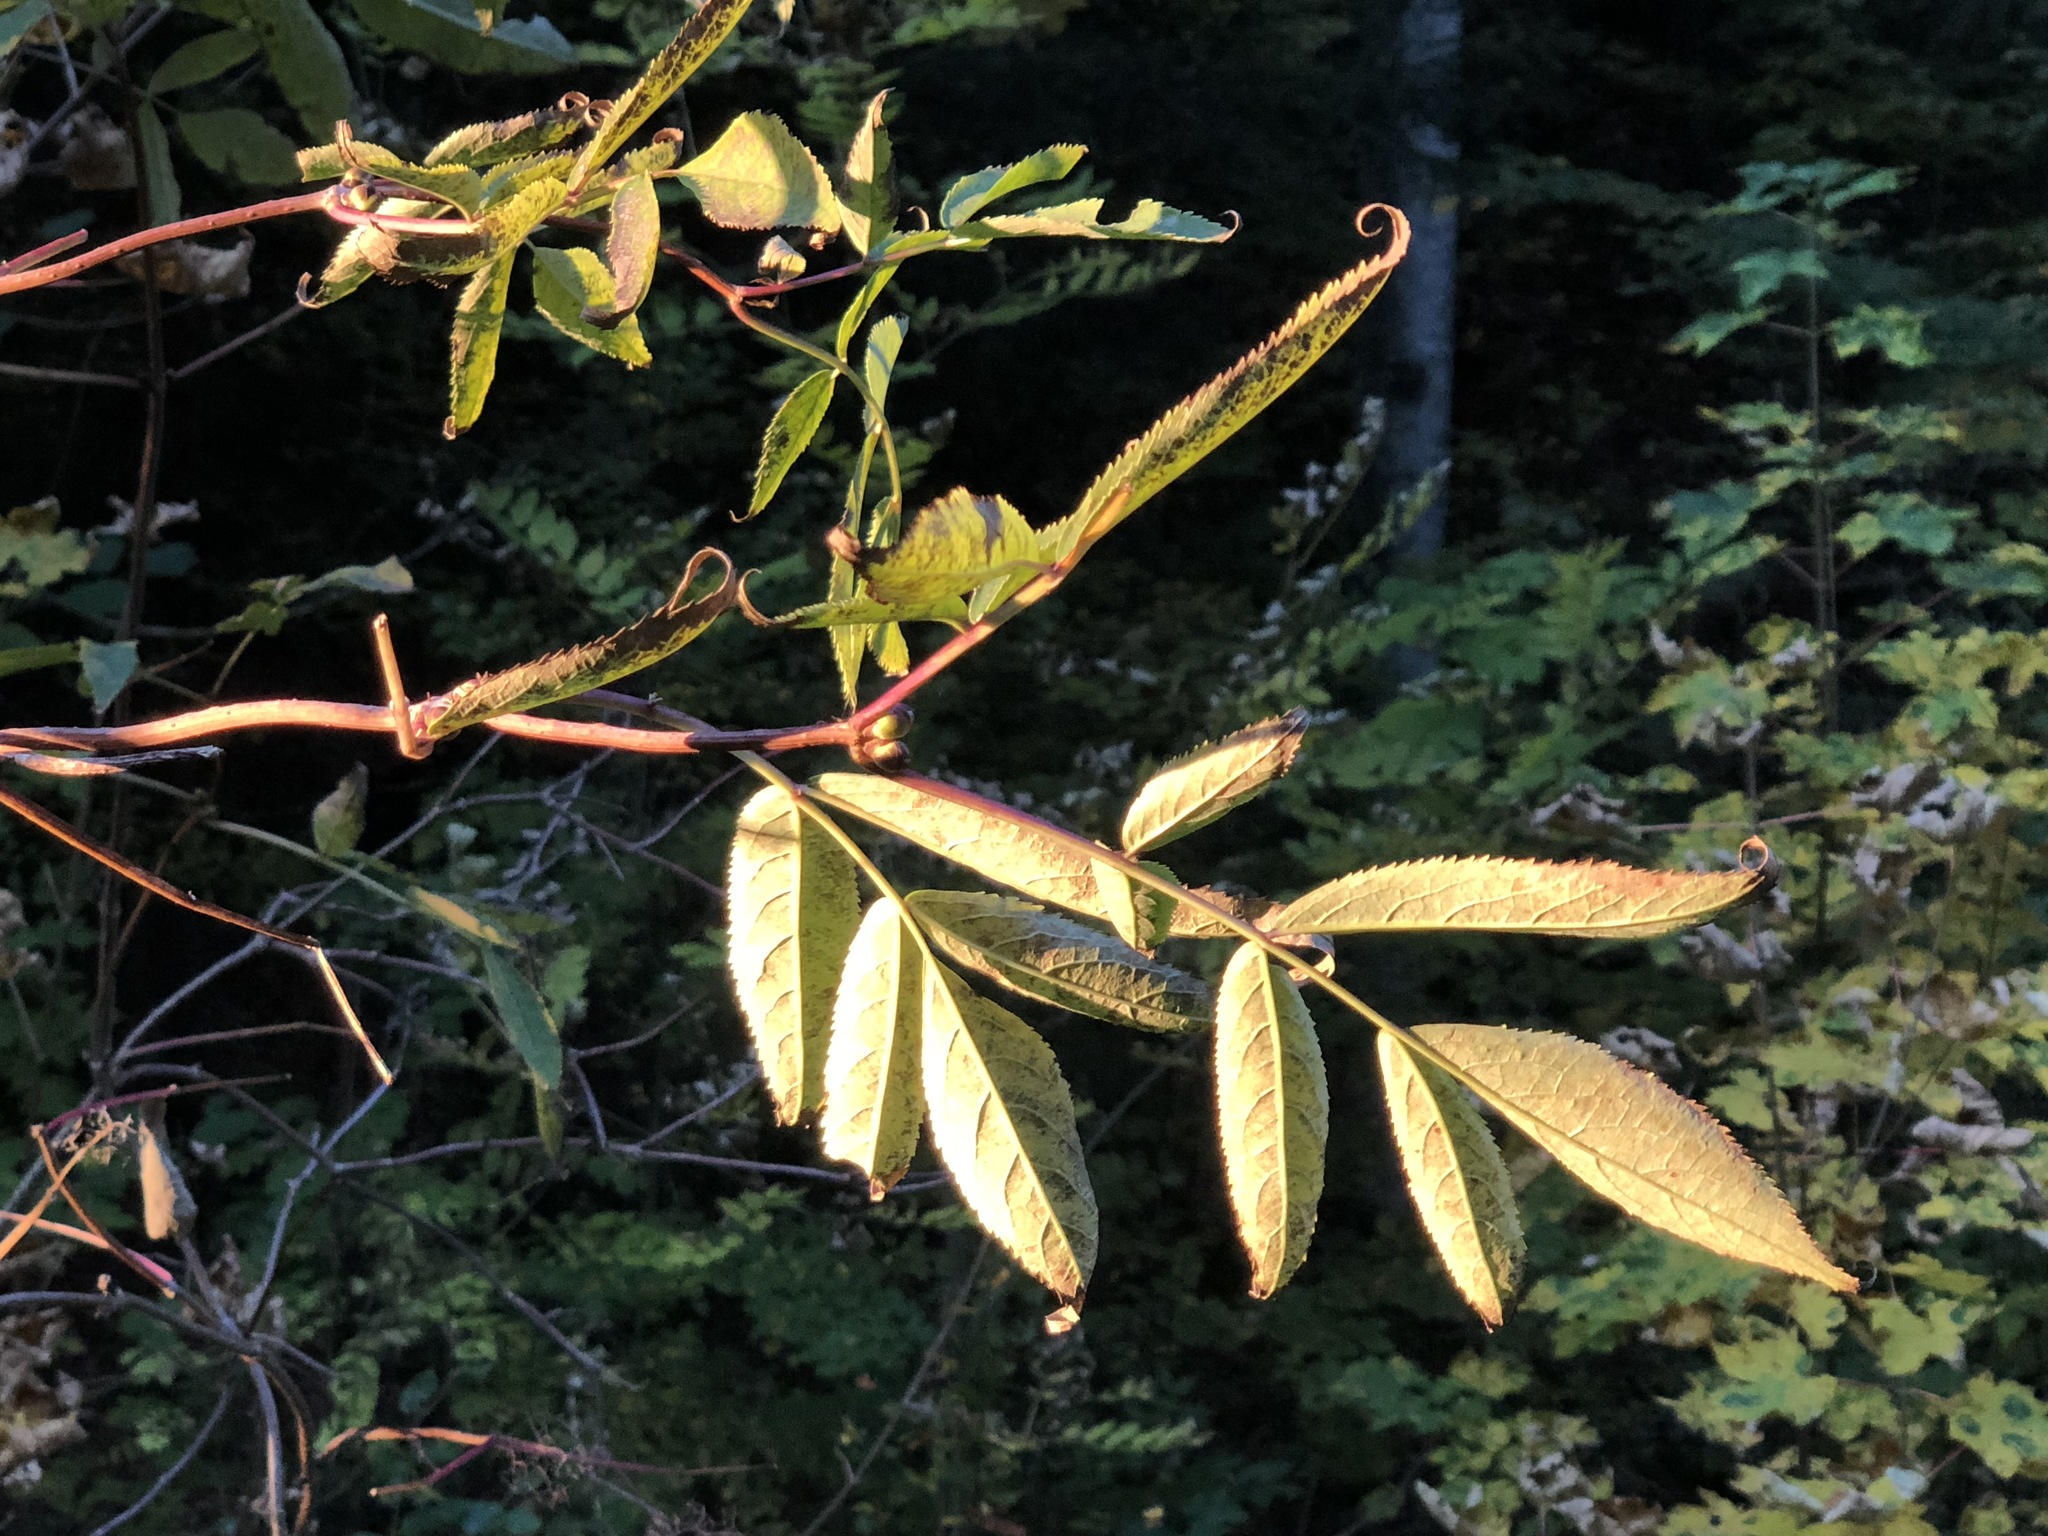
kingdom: Plantae
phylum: Tracheophyta
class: Magnoliopsida
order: Dipsacales
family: Viburnaceae
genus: Sambucus
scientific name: Sambucus racemosa
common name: Red-berried elder
